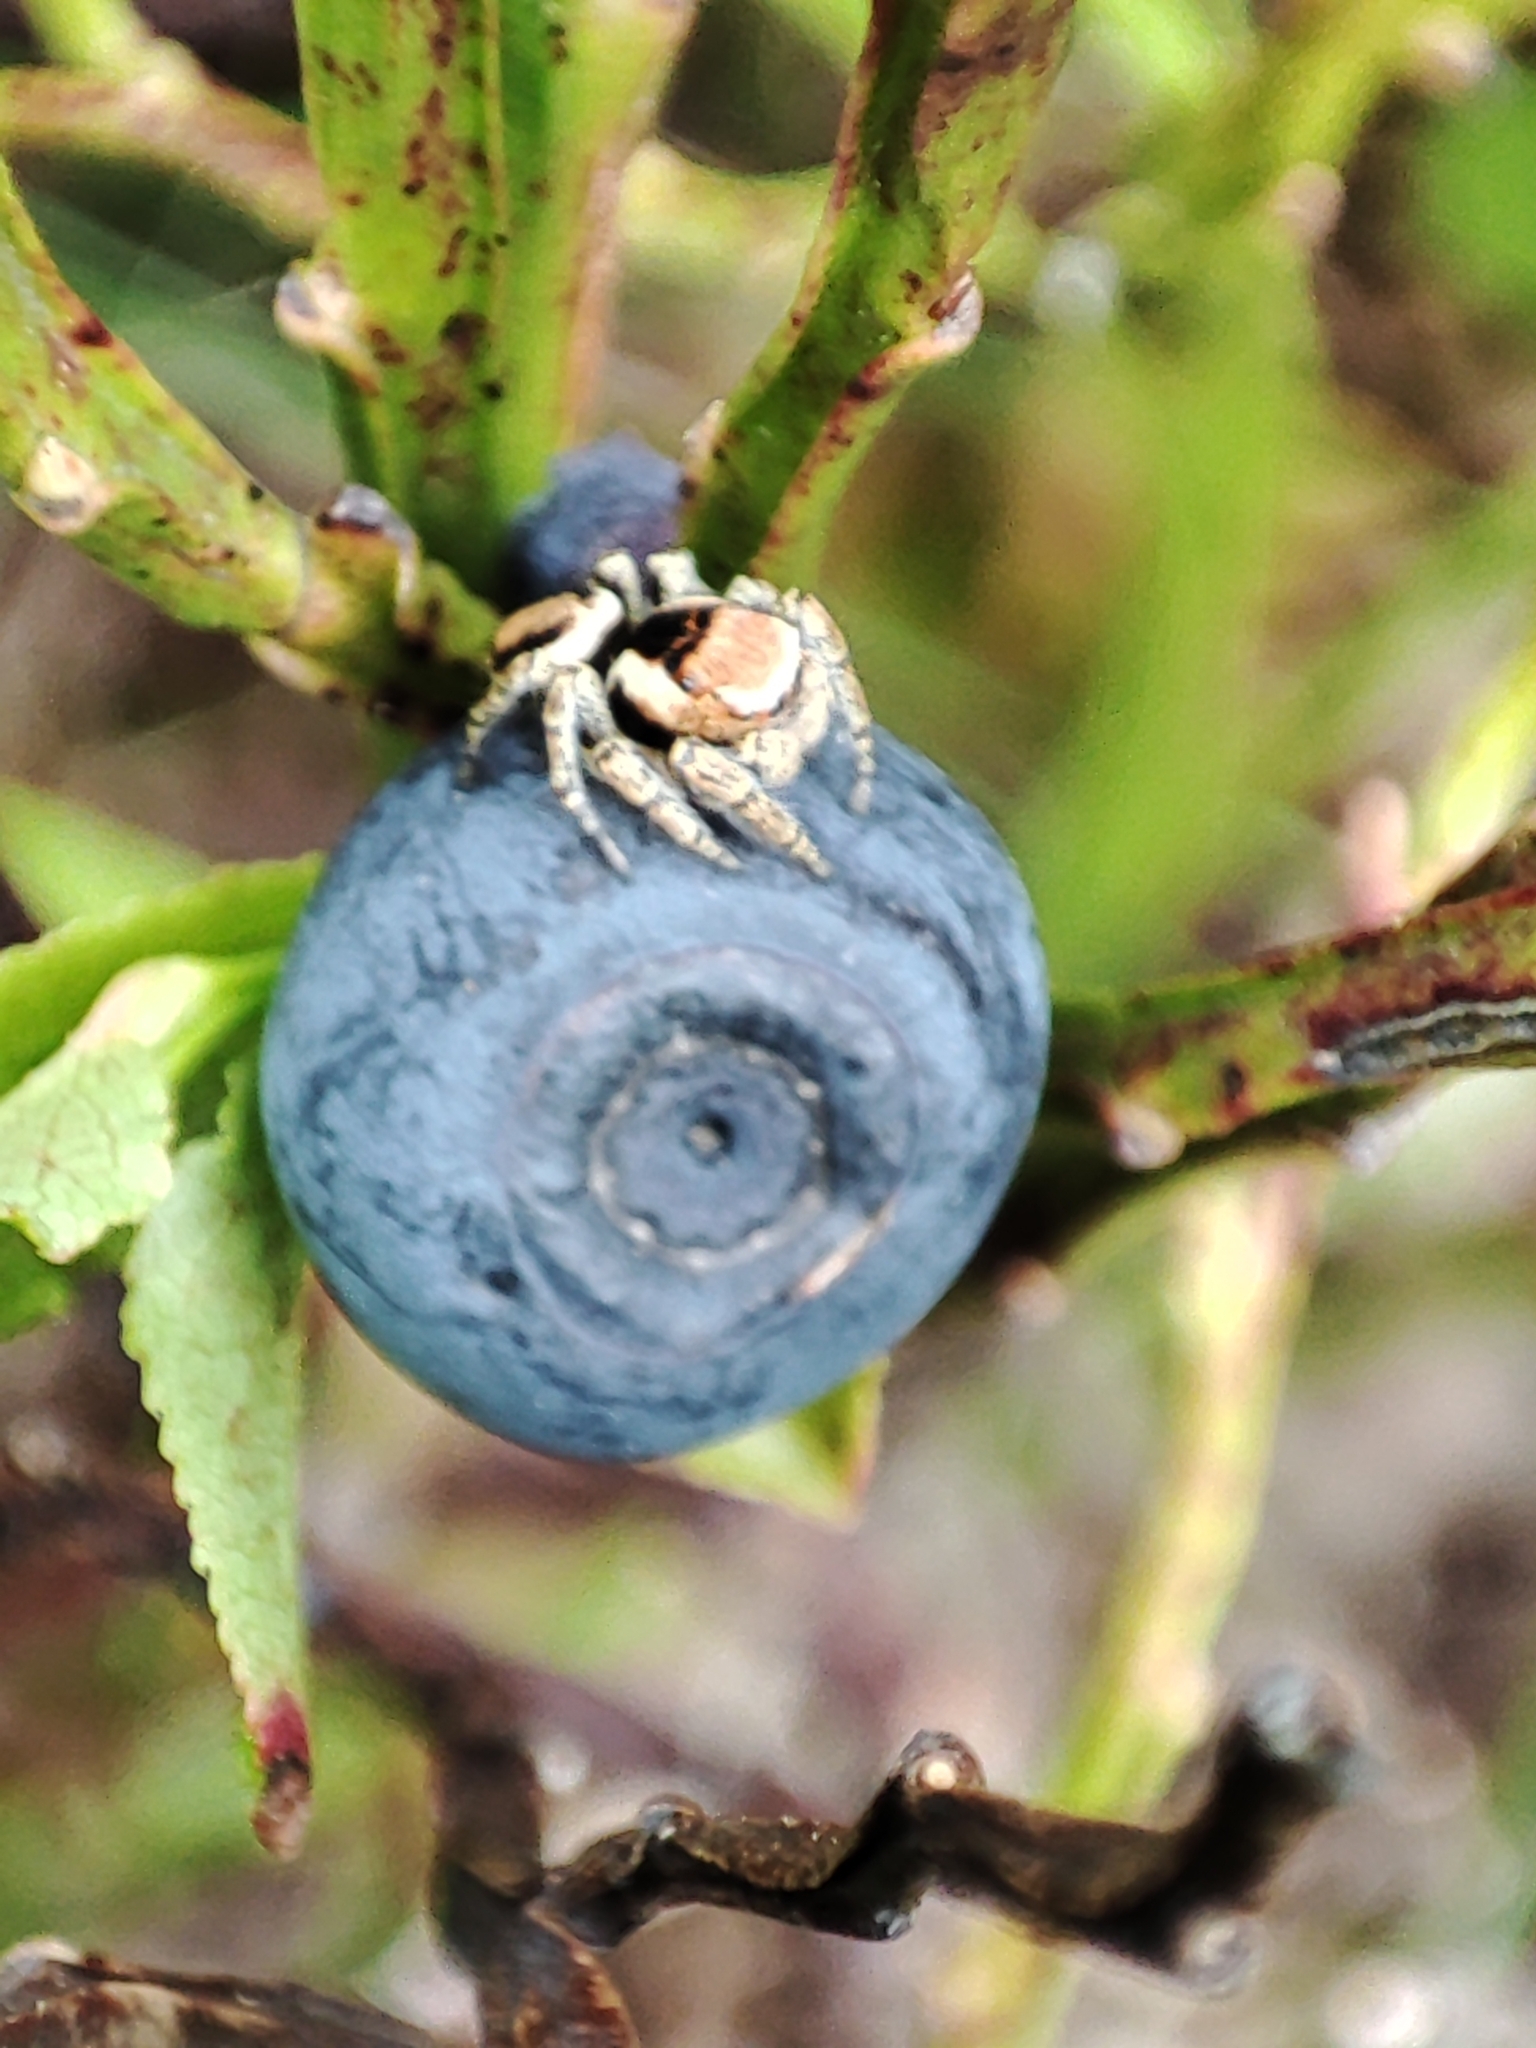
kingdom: Animalia
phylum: Arthropoda
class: Arachnida
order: Araneae
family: Salticidae
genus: Evarcha
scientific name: Evarcha falcata
